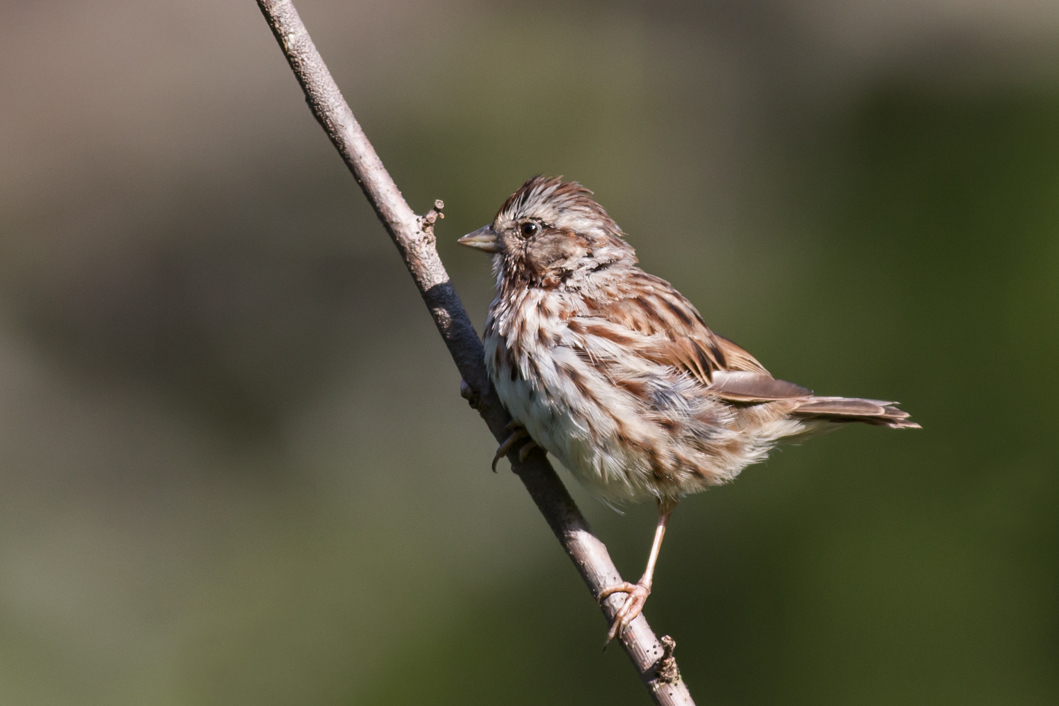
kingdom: Animalia
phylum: Chordata
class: Aves
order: Passeriformes
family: Passerellidae
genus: Melospiza
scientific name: Melospiza melodia
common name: Song sparrow
